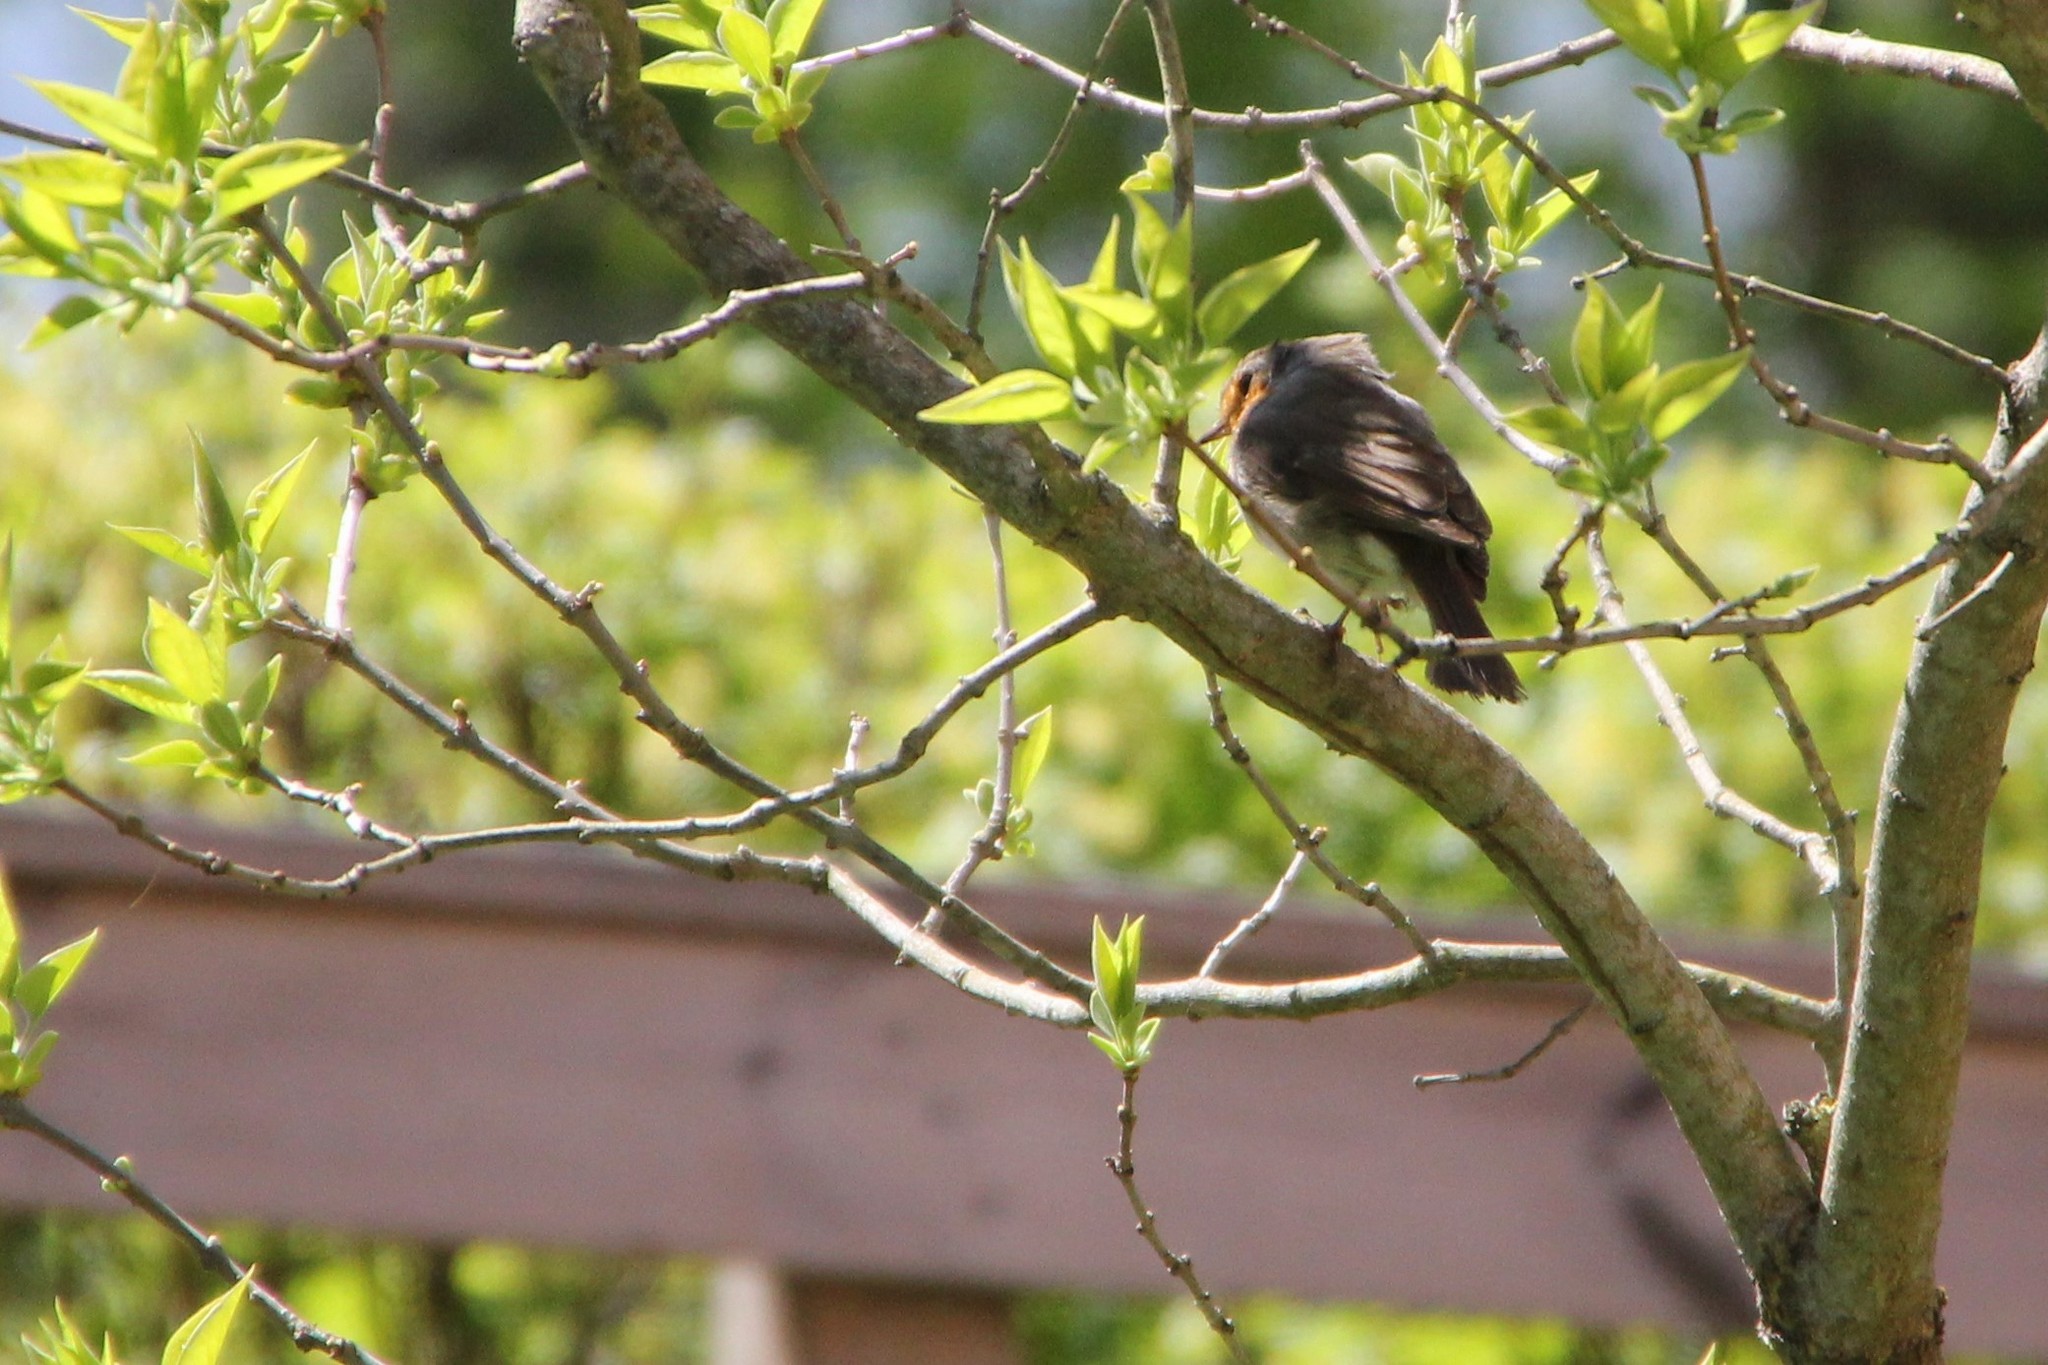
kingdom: Animalia
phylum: Chordata
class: Aves
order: Passeriformes
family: Muscicapidae
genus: Erithacus
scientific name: Erithacus rubecula
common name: European robin
